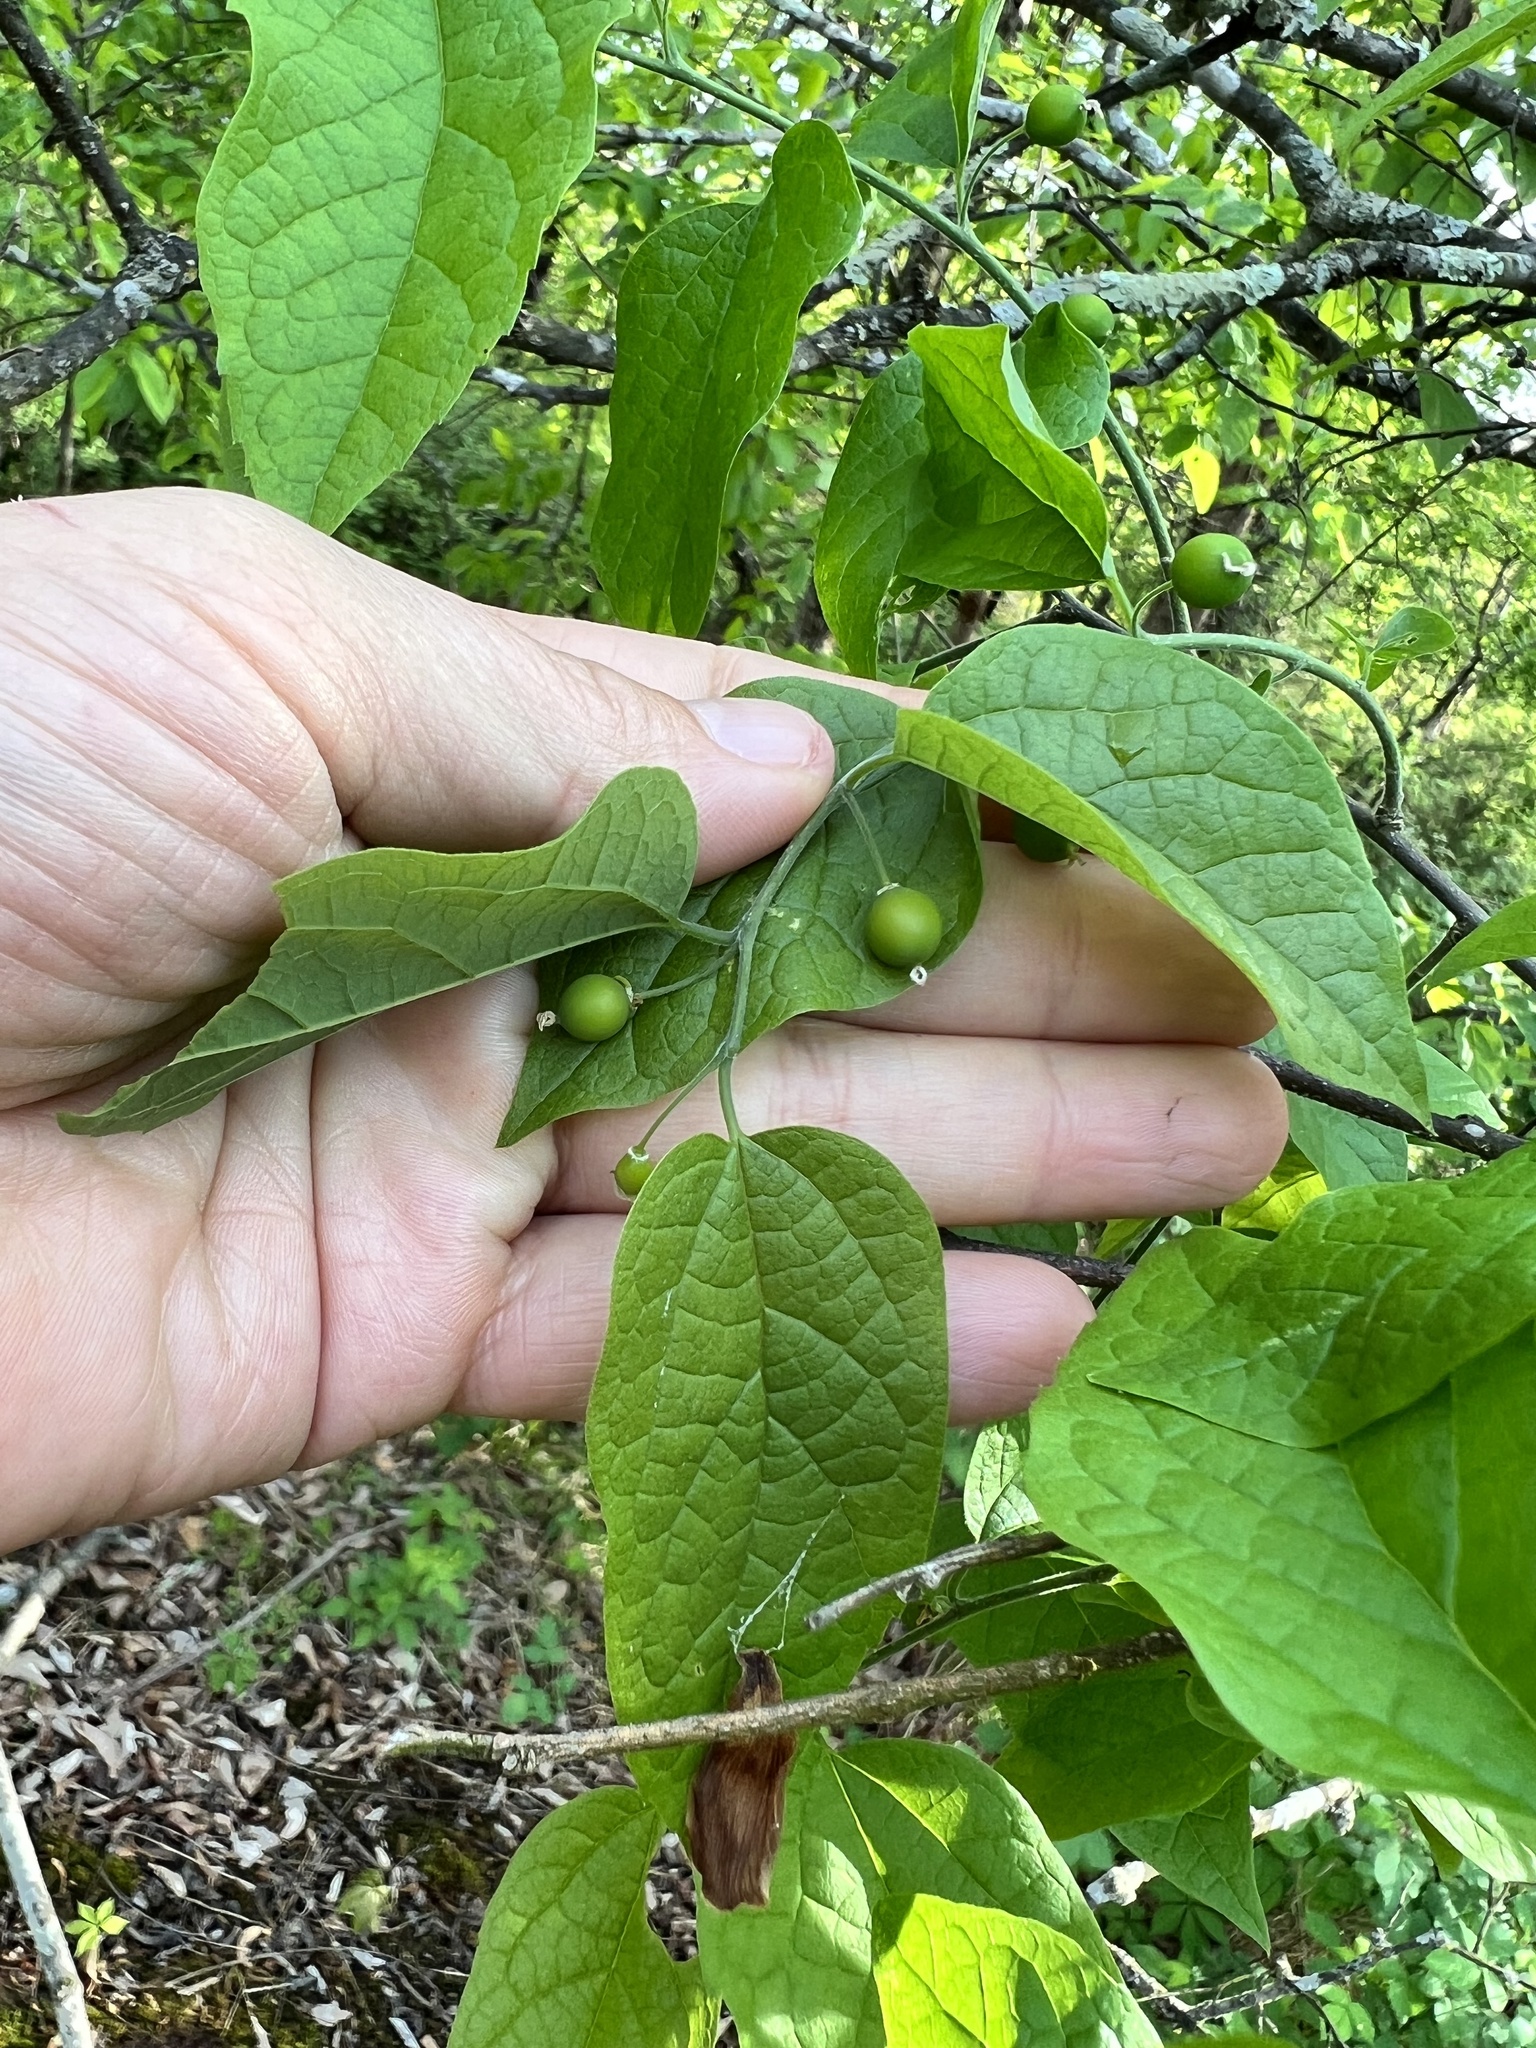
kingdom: Plantae
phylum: Tracheophyta
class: Magnoliopsida
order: Rosales
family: Cannabaceae
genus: Celtis
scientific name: Celtis tenuifolia
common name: Georgia hackberry
